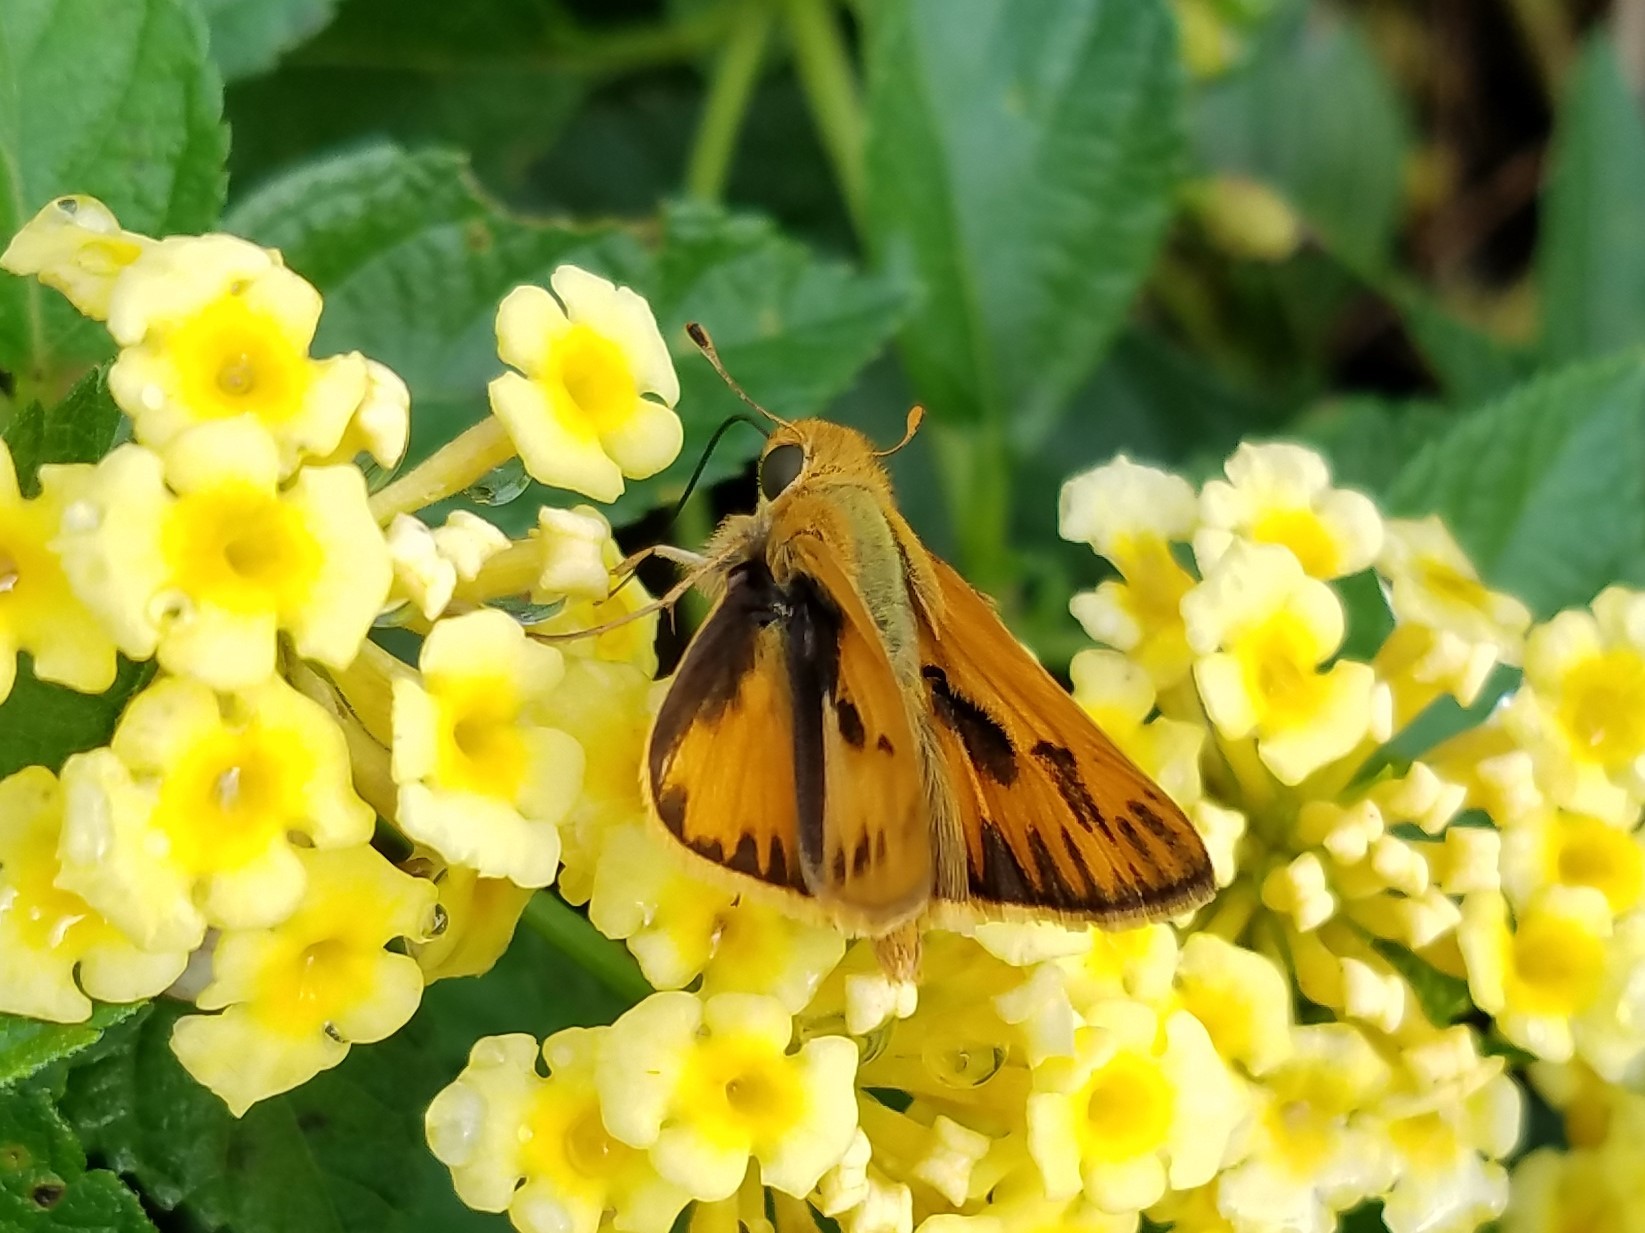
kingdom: Animalia
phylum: Arthropoda
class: Insecta
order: Lepidoptera
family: Hesperiidae
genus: Hylephila
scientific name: Hylephila phyleus
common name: Fiery skipper
